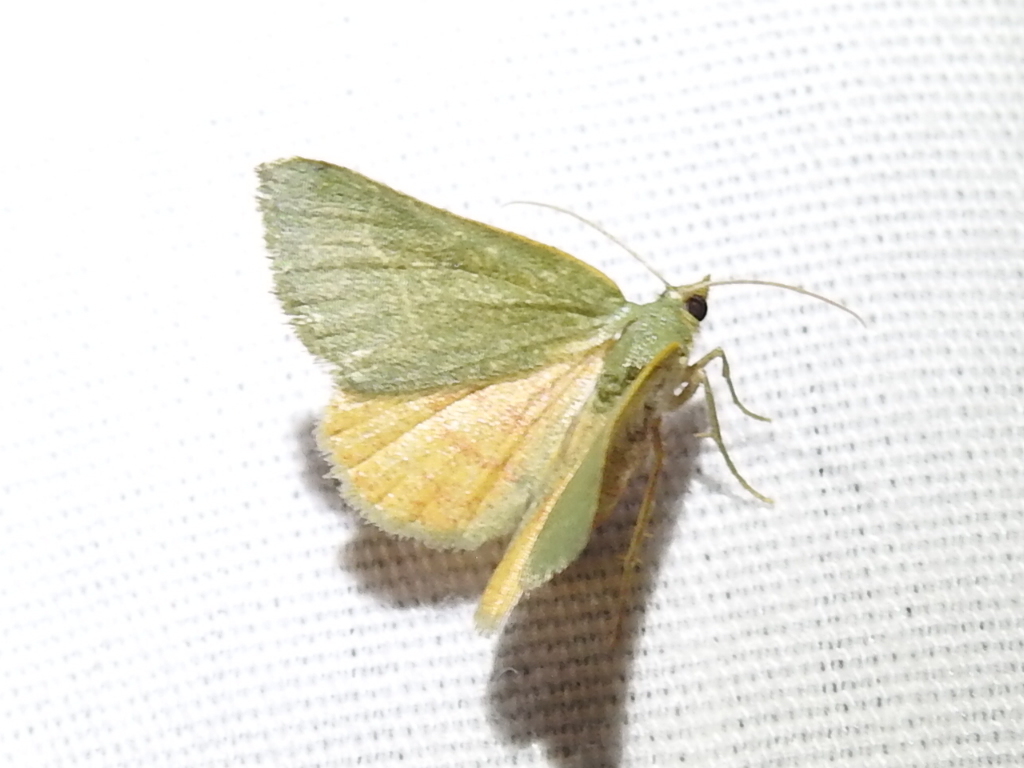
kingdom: Animalia
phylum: Arthropoda
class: Insecta
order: Lepidoptera
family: Geometridae
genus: Chloraspilates
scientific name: Chloraspilates bicoloraria
